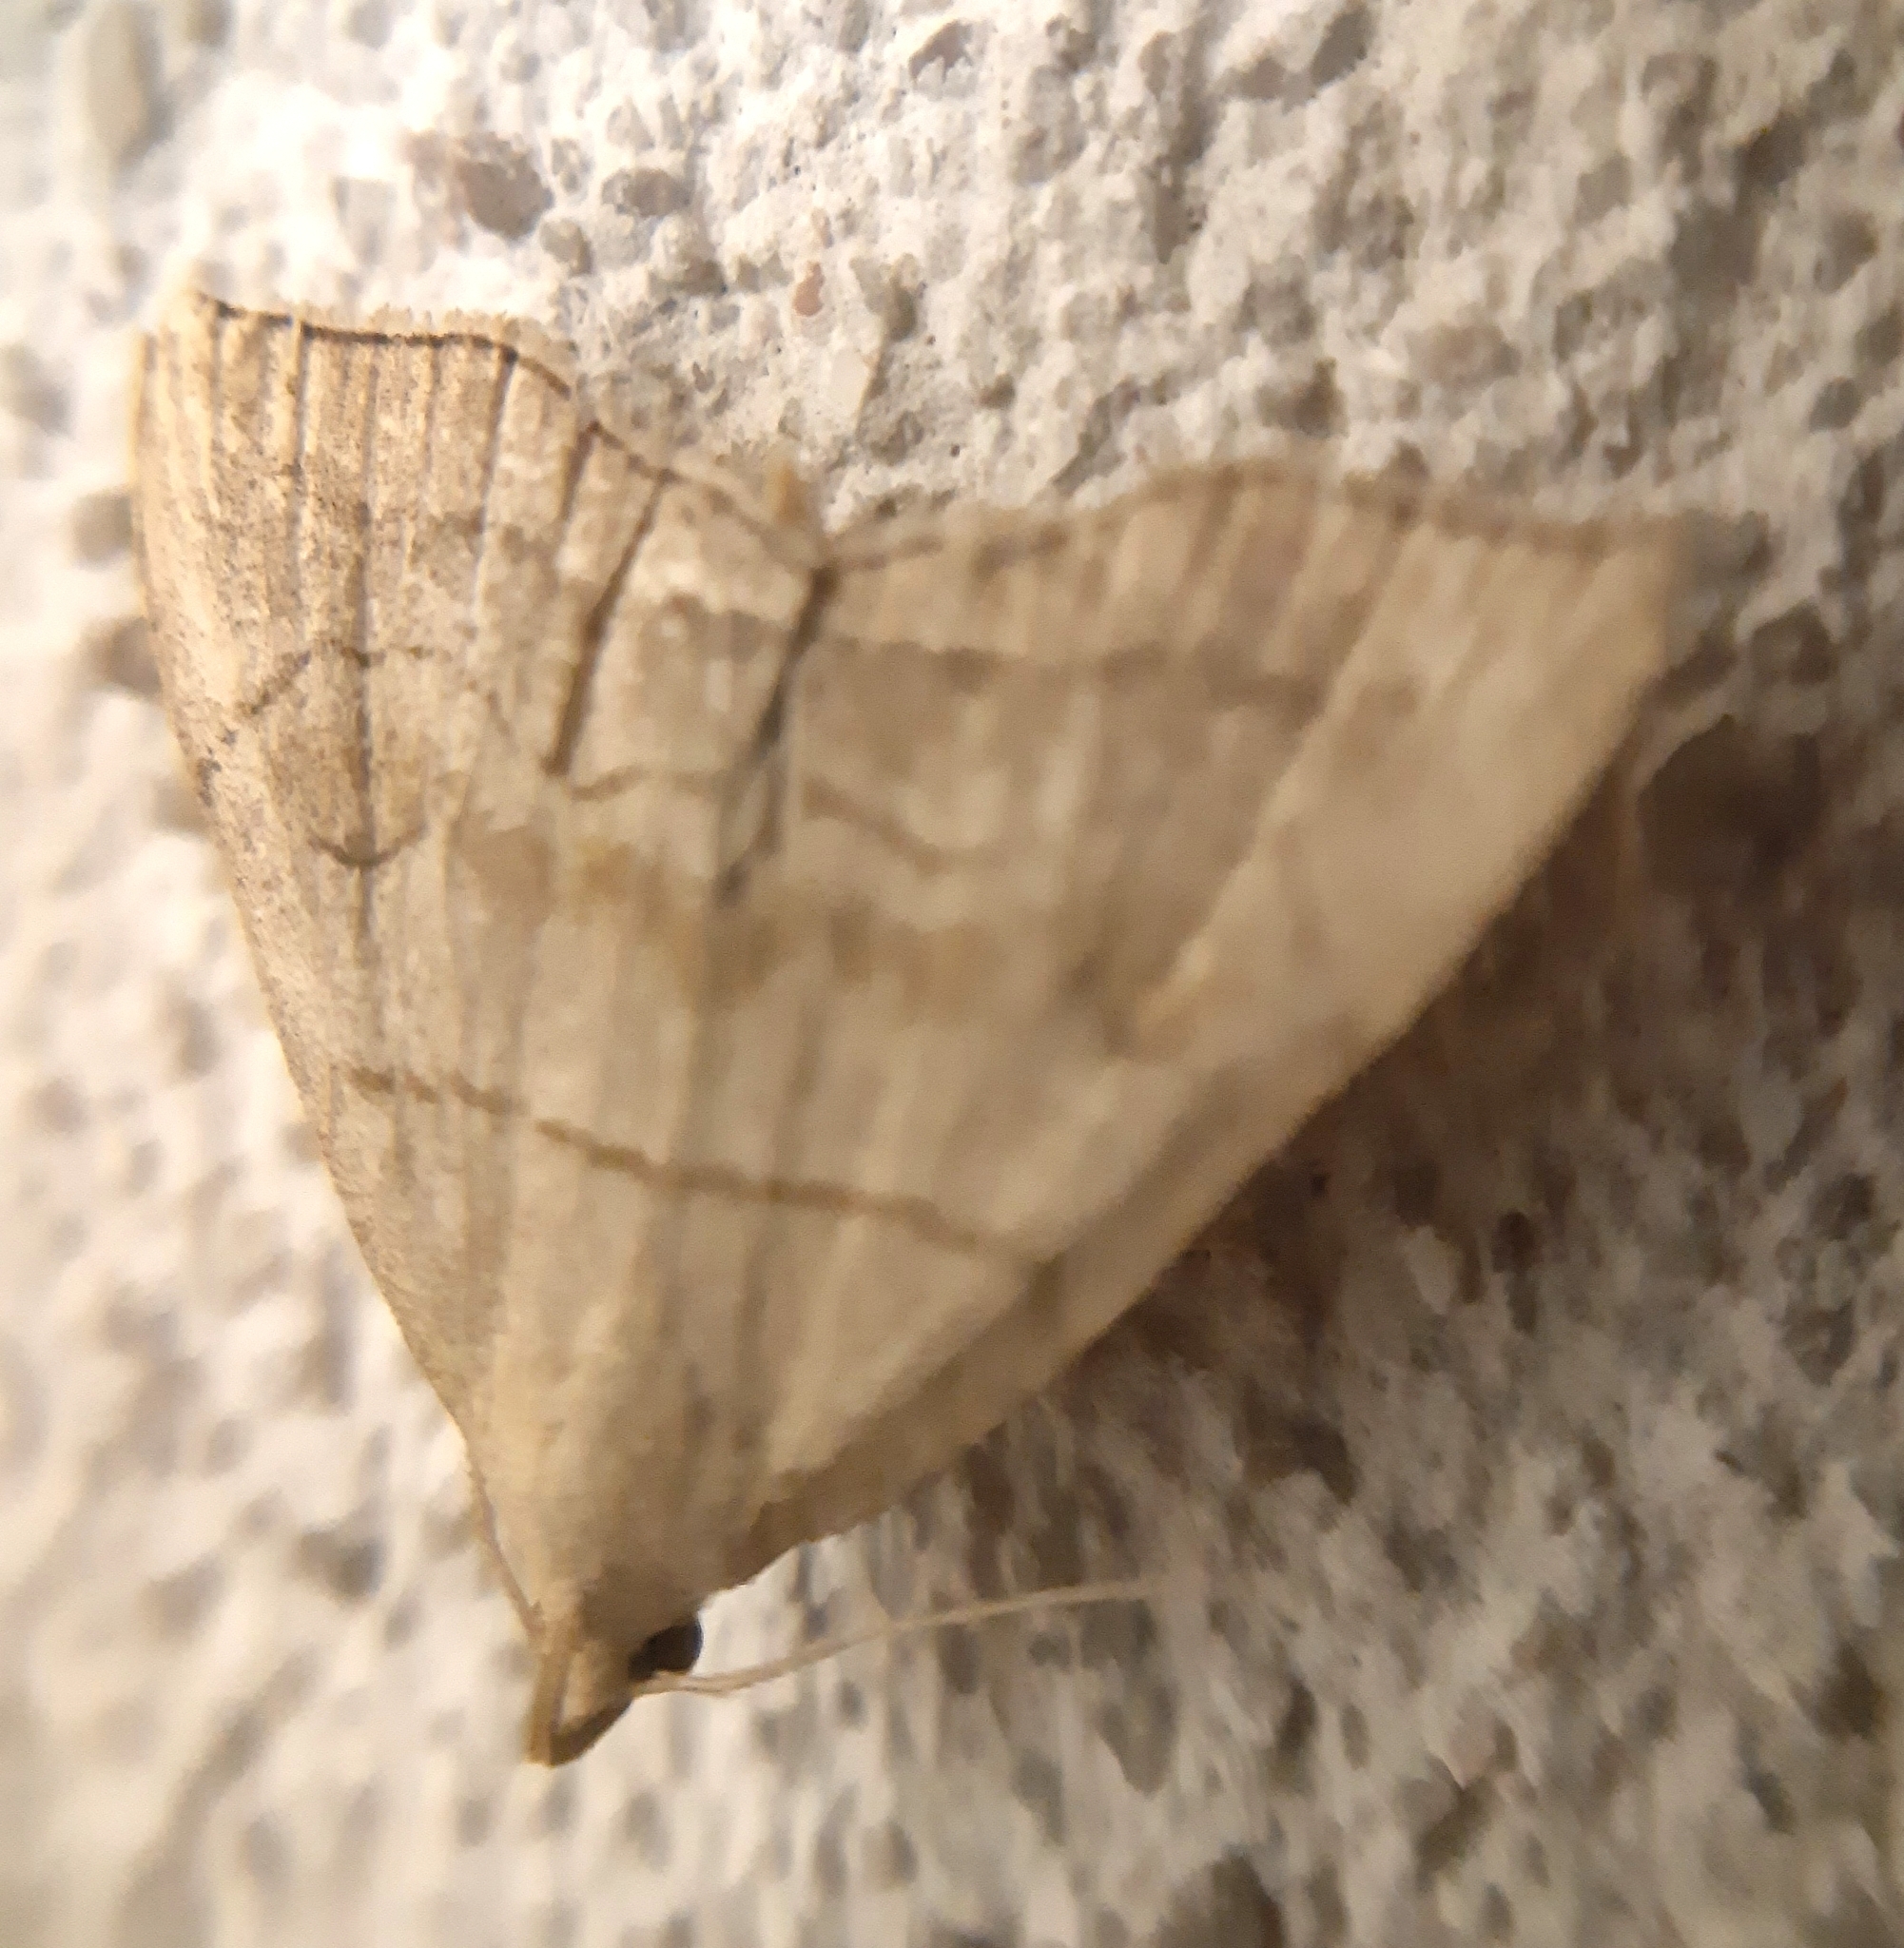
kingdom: Animalia
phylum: Arthropoda
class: Insecta
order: Lepidoptera
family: Erebidae
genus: Herminia
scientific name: Herminia tarsicrinalis
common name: Shaded fan-foot
